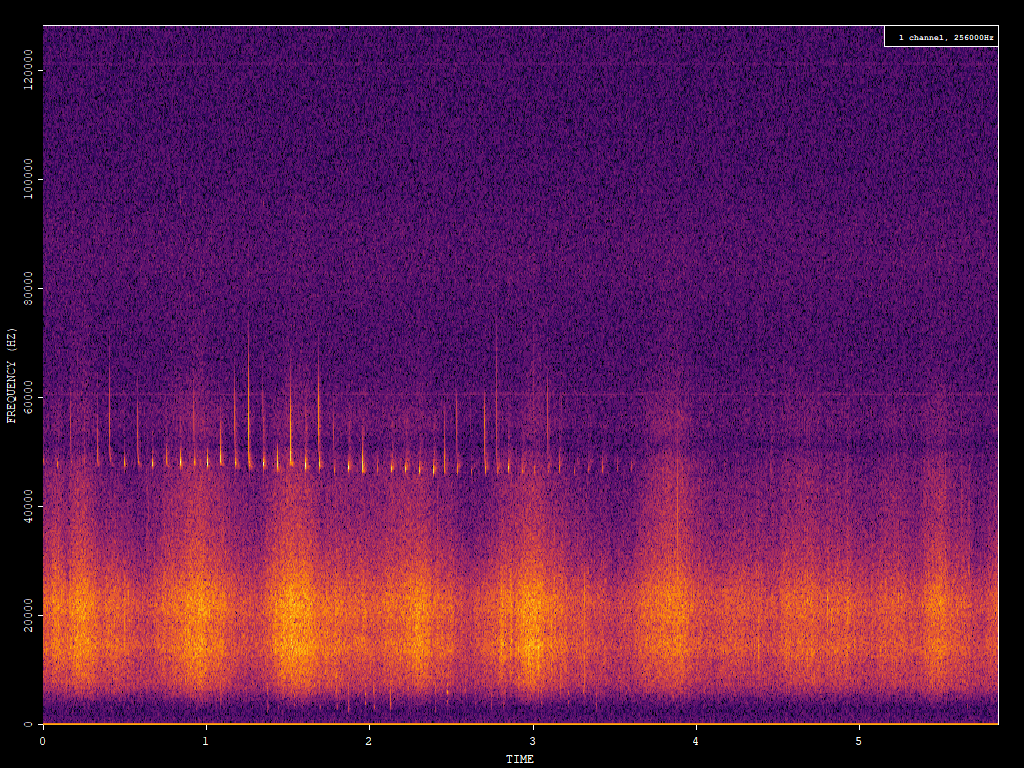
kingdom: Animalia
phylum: Chordata
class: Mammalia
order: Chiroptera
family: Vespertilionidae
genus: Pipistrellus
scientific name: Pipistrellus pipistrellus
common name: Common pipistrelle
